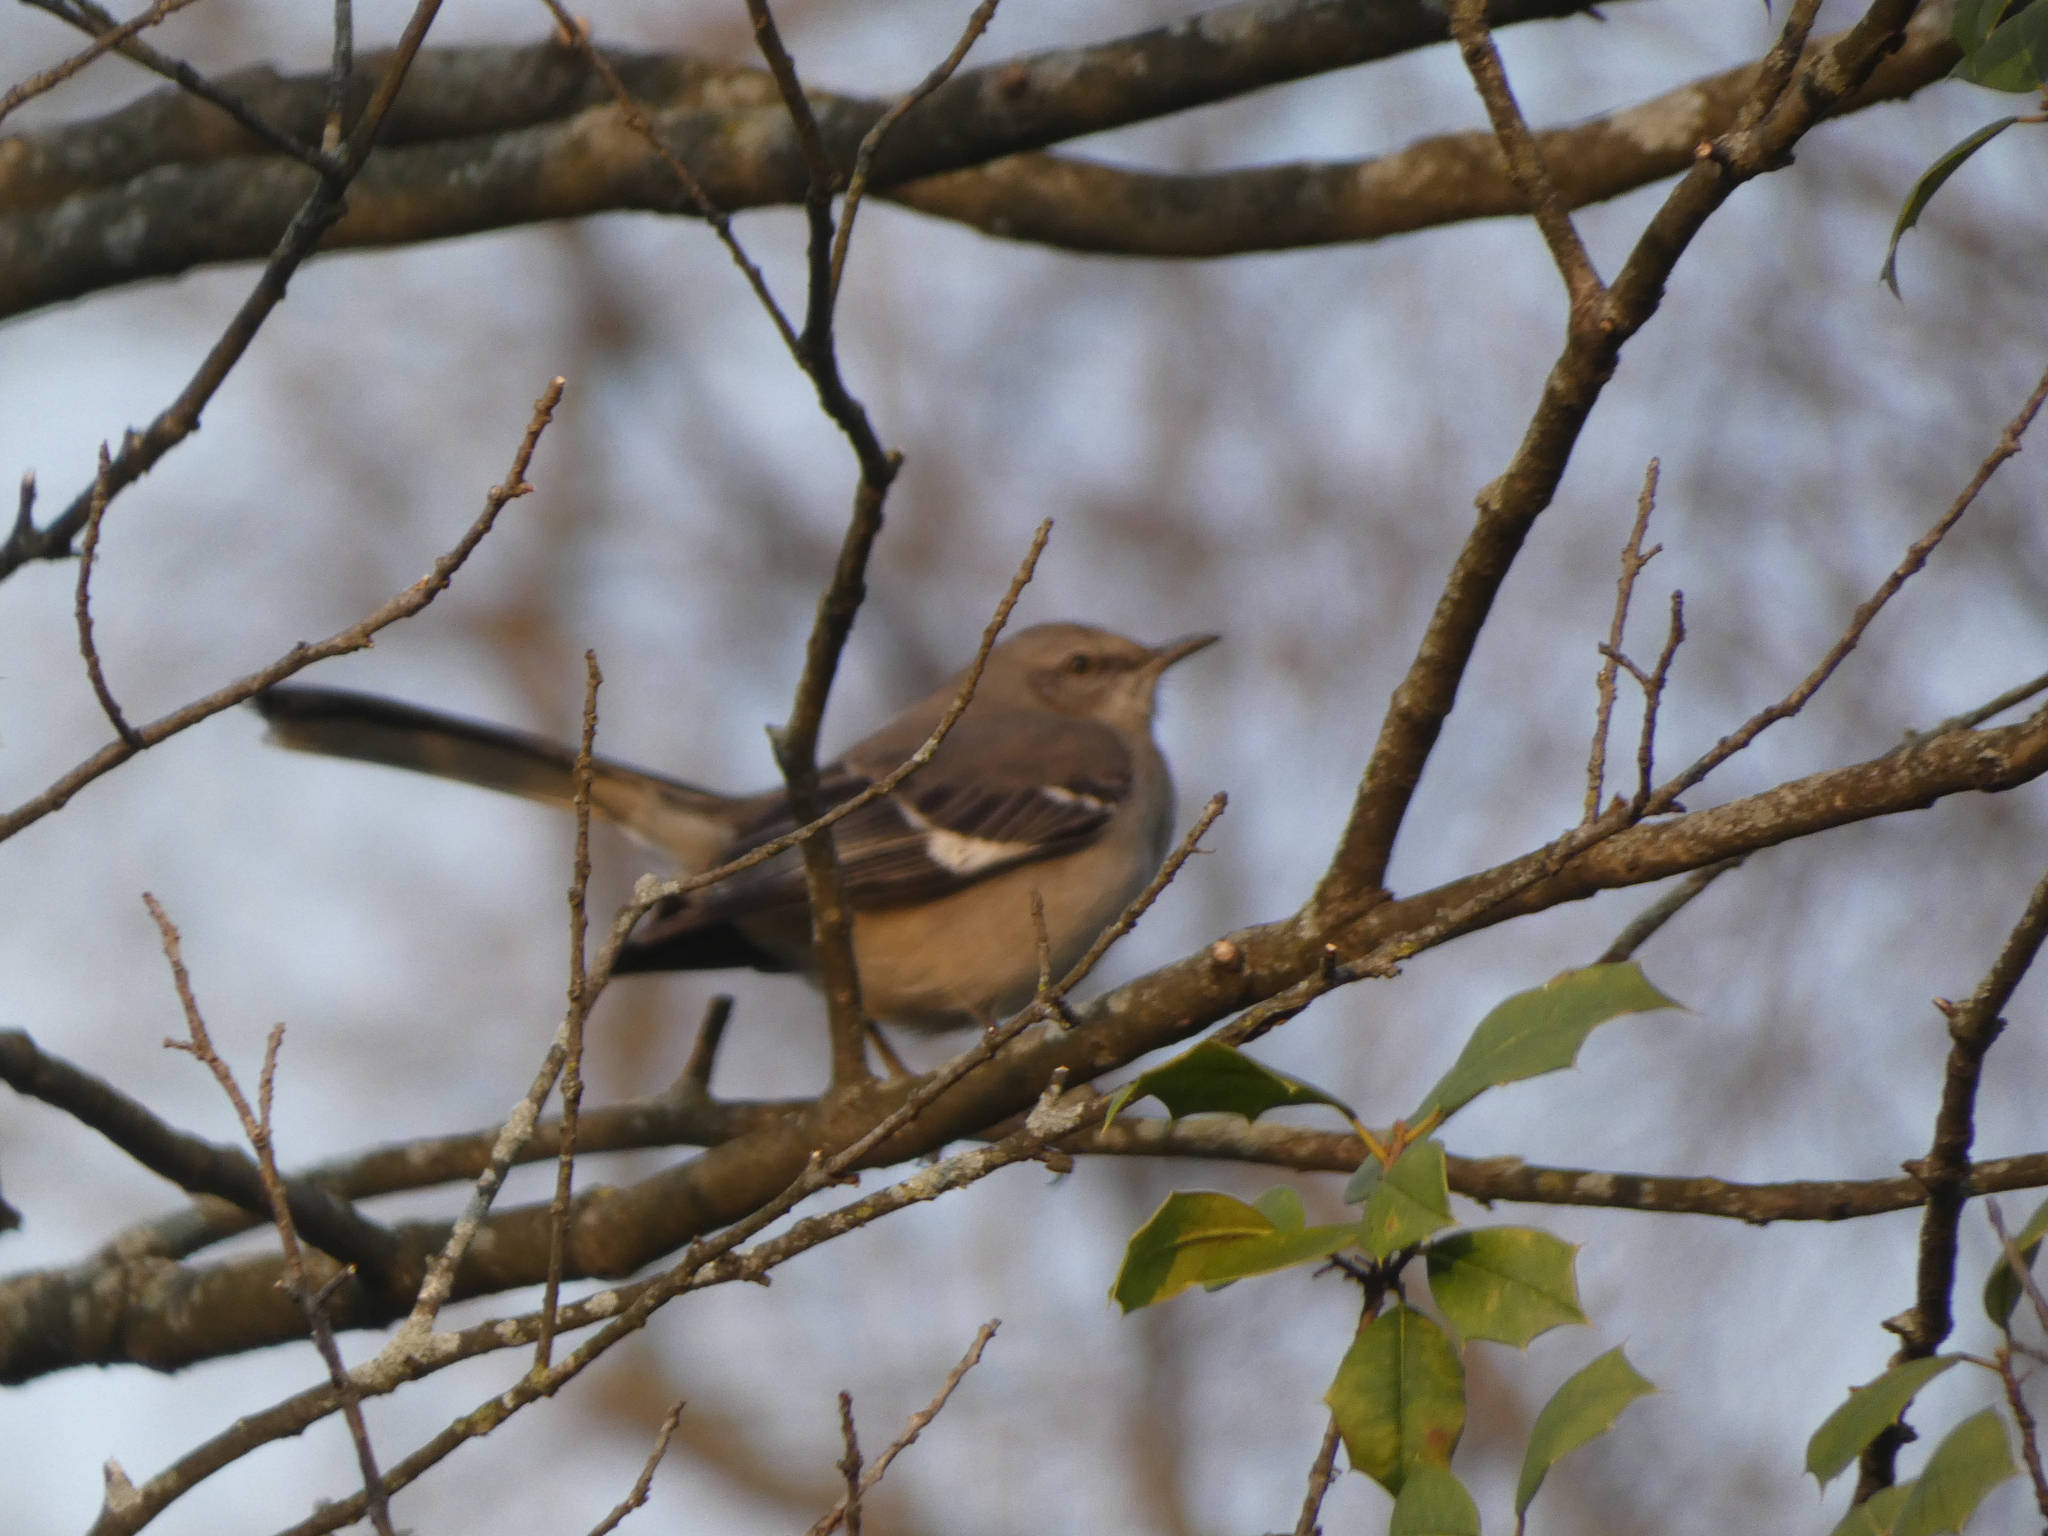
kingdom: Animalia
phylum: Chordata
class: Aves
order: Passeriformes
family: Mimidae
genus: Mimus
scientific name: Mimus polyglottos
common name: Northern mockingbird
